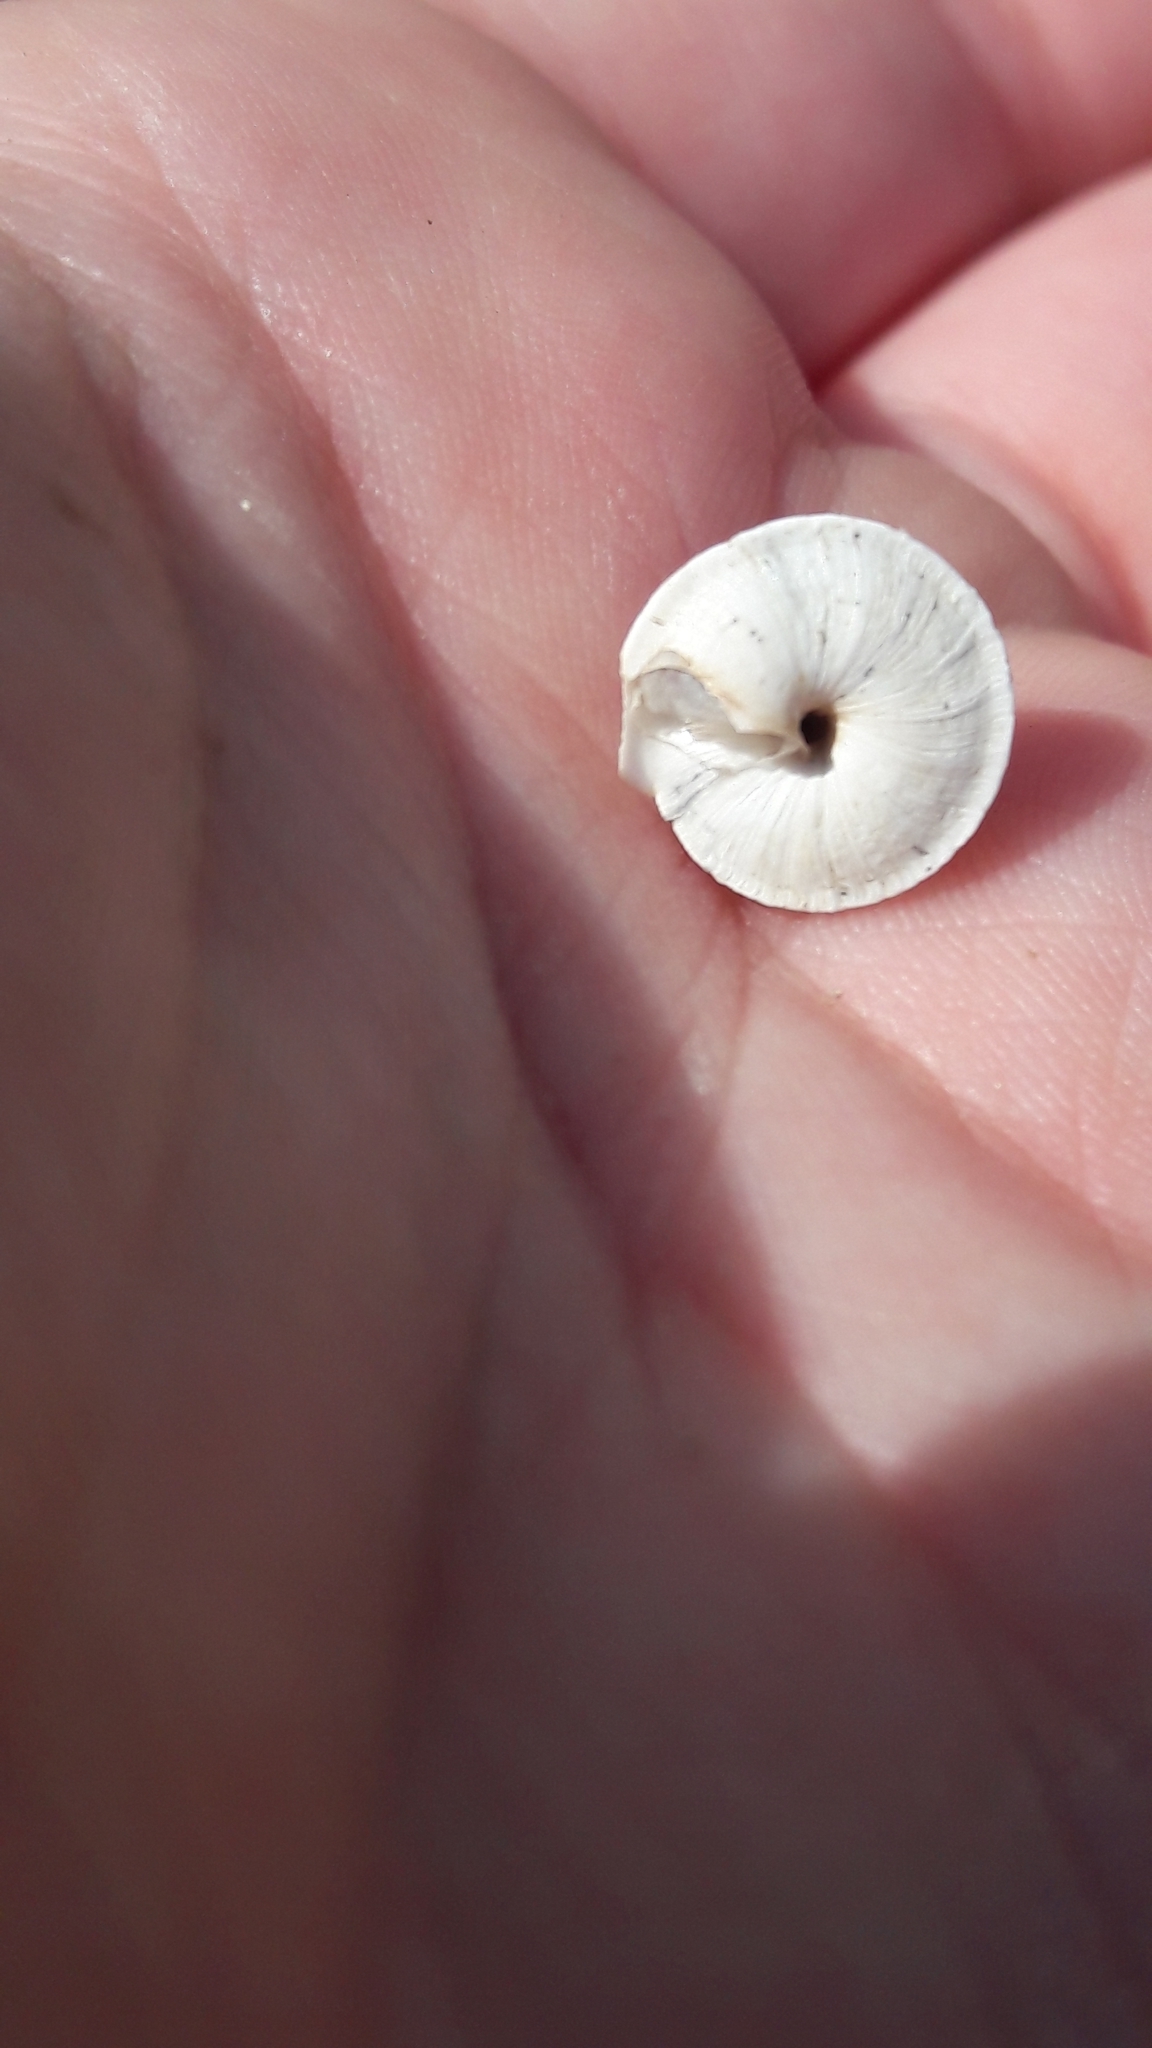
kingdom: Animalia
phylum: Mollusca
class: Gastropoda
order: Stylommatophora
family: Geomitridae
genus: Trochoidea
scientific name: Trochoidea elegans
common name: Elegant helicellid
